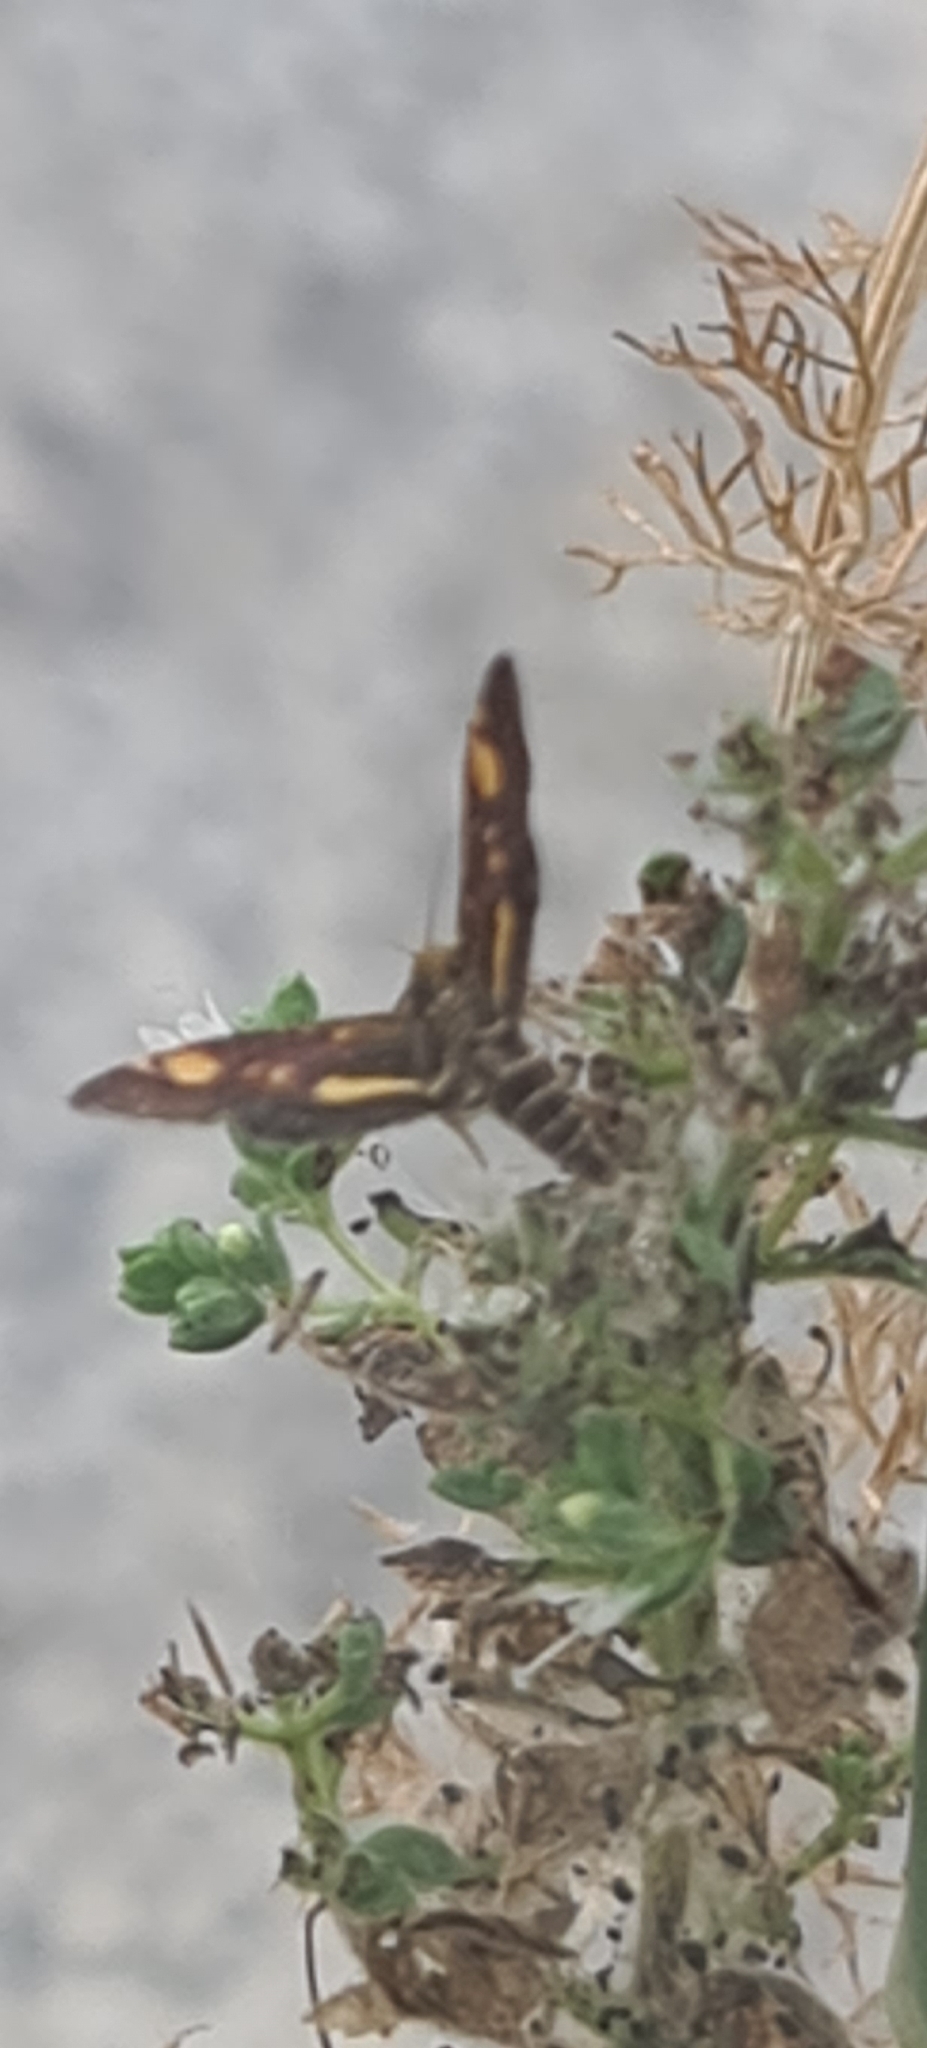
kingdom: Animalia
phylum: Arthropoda
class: Insecta
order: Lepidoptera
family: Crambidae
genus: Pyrausta
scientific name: Pyrausta aurata
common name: Small purple & gold
